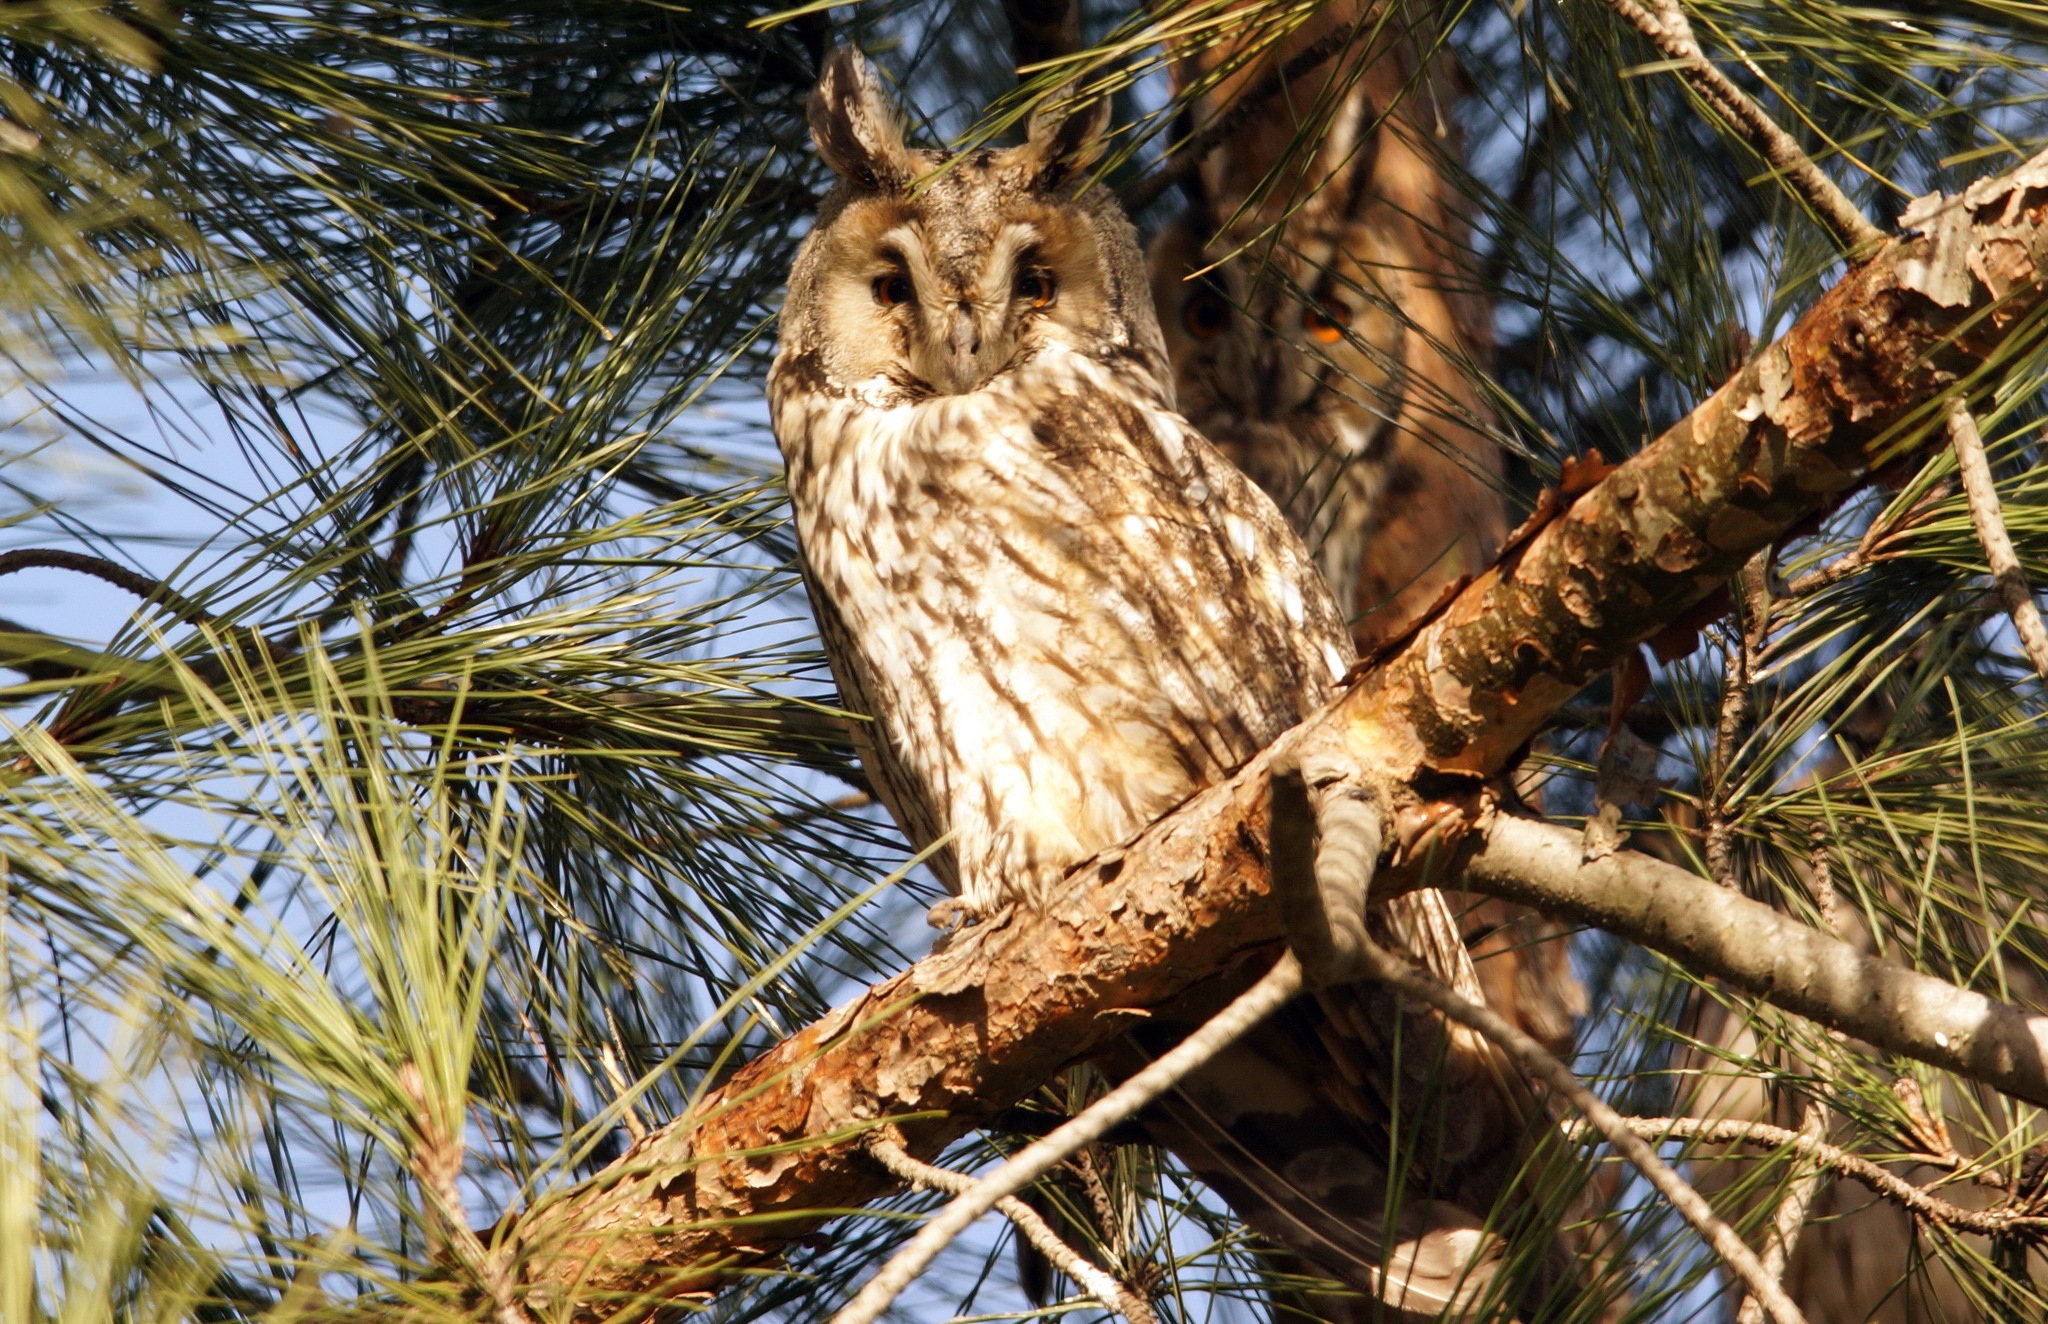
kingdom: Animalia
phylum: Chordata
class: Aves
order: Strigiformes
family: Strigidae
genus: Asio
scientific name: Asio otus
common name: Long-eared owl
